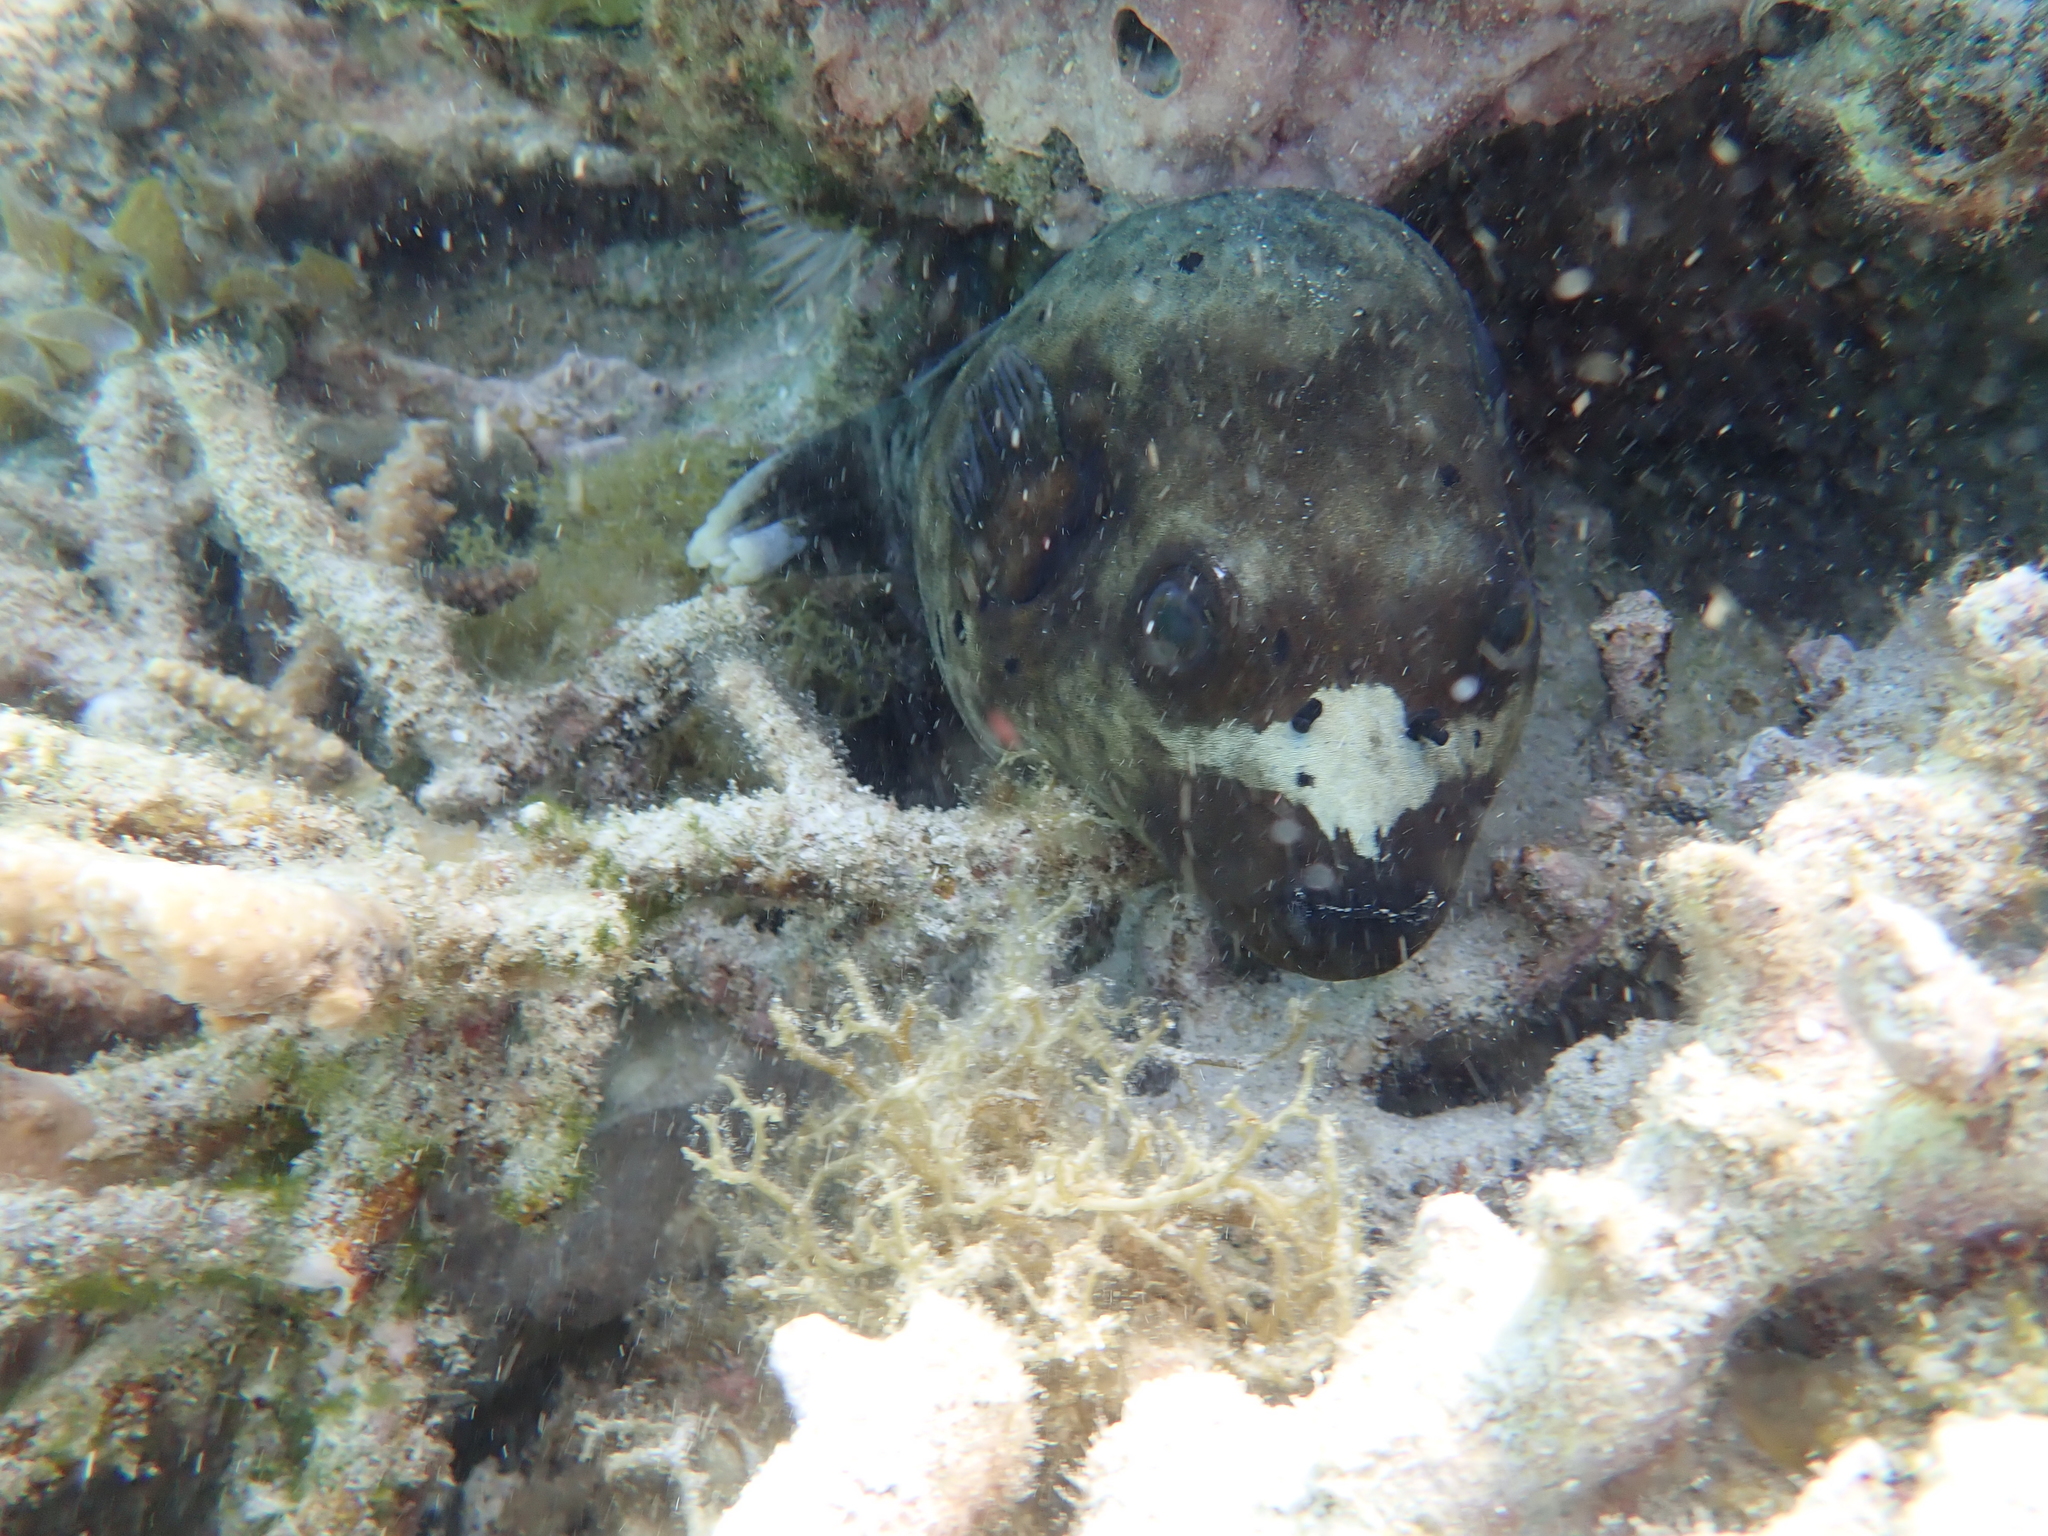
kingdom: Animalia
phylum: Chordata
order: Tetraodontiformes
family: Tetraodontidae
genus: Arothron
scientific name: Arothron nigropunctatus
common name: Black spotted blow fish
